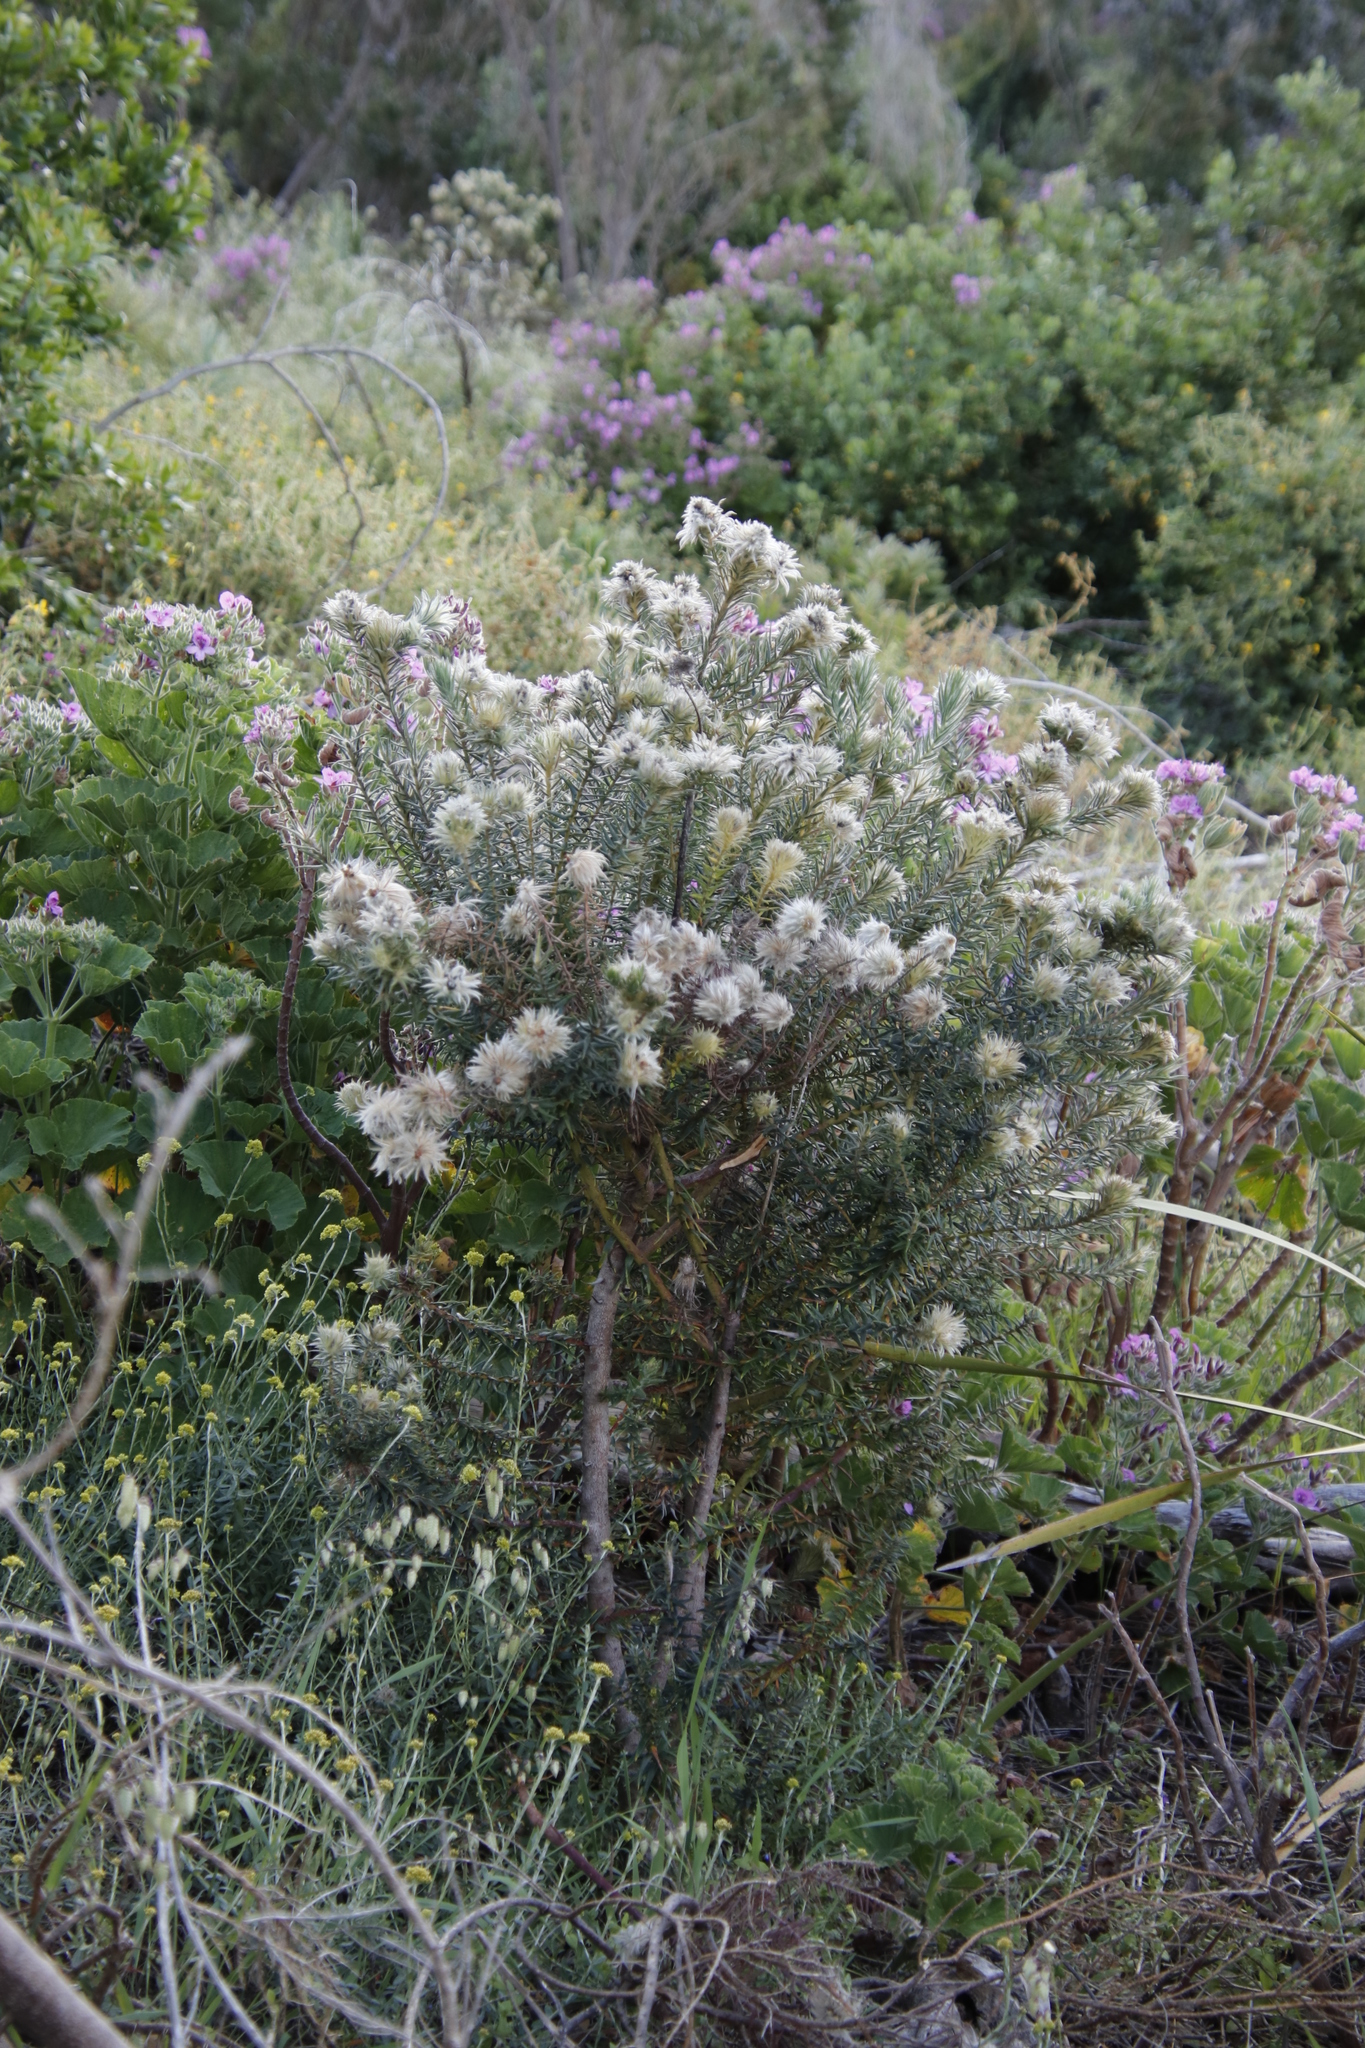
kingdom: Plantae
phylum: Tracheophyta
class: Magnoliopsida
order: Rosales
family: Rhamnaceae
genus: Phylica
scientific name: Phylica pubescens
